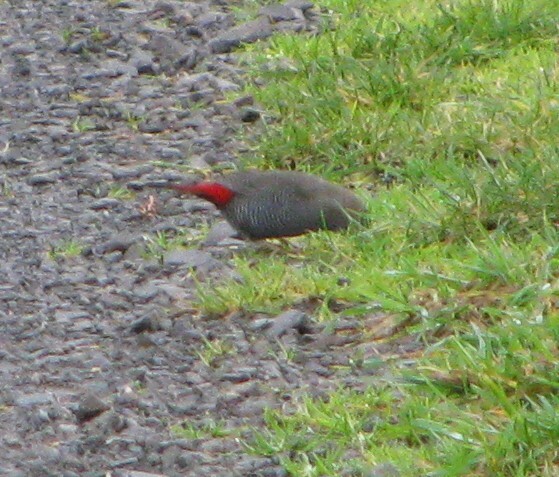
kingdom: Animalia
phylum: Chordata
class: Aves
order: Passeriformes
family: Estrildidae
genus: Stagonopleura
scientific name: Stagonopleura bella
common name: Beautiful firetail
